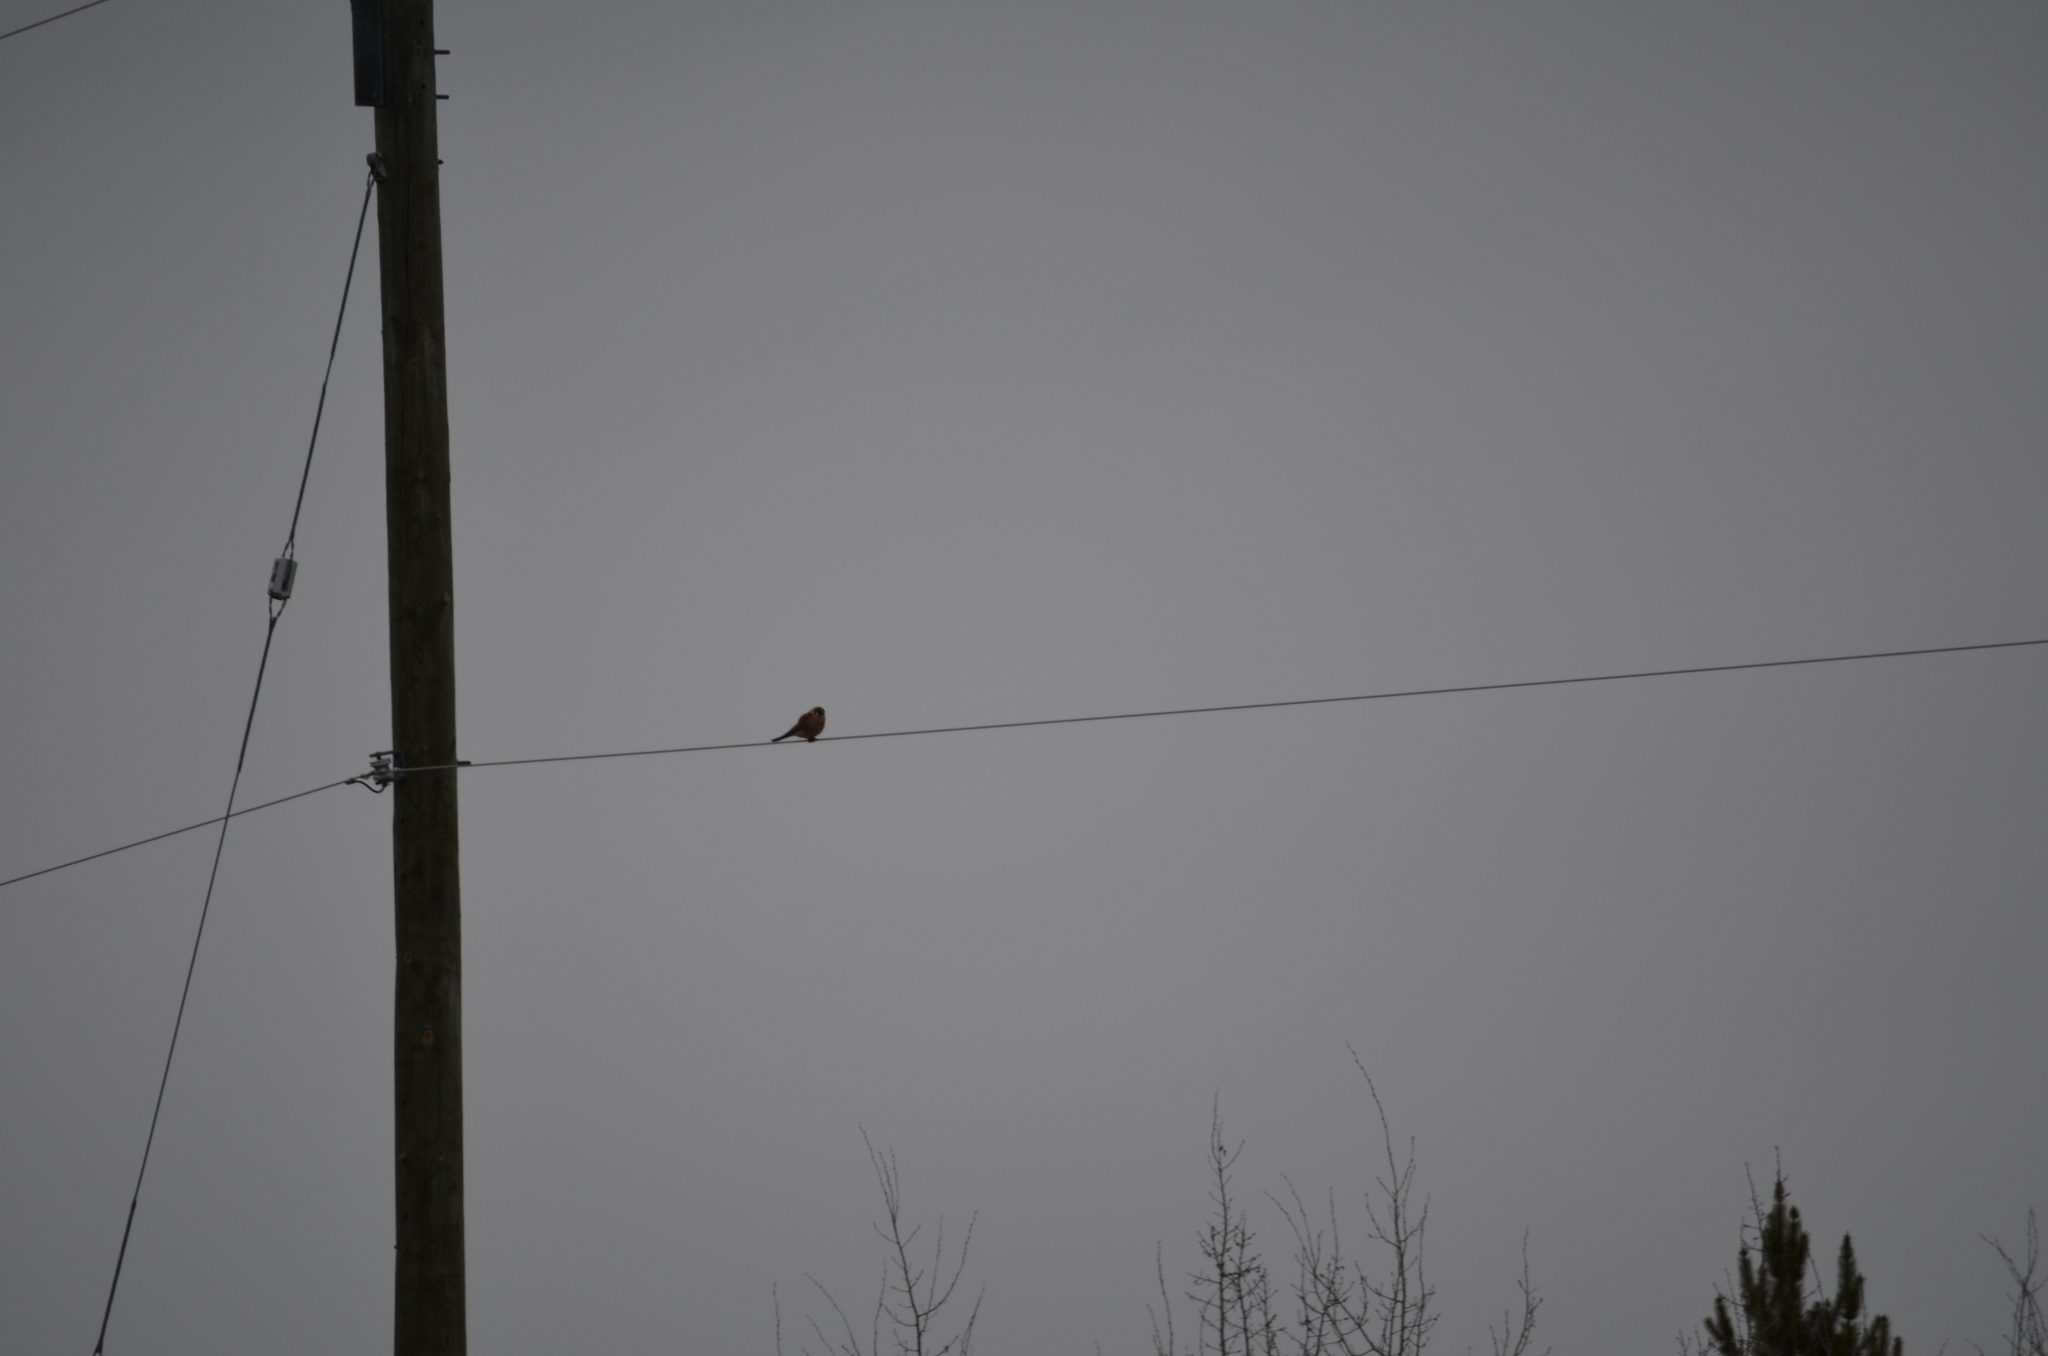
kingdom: Animalia
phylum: Chordata
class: Aves
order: Falconiformes
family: Falconidae
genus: Falco
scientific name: Falco sparverius
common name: American kestrel
